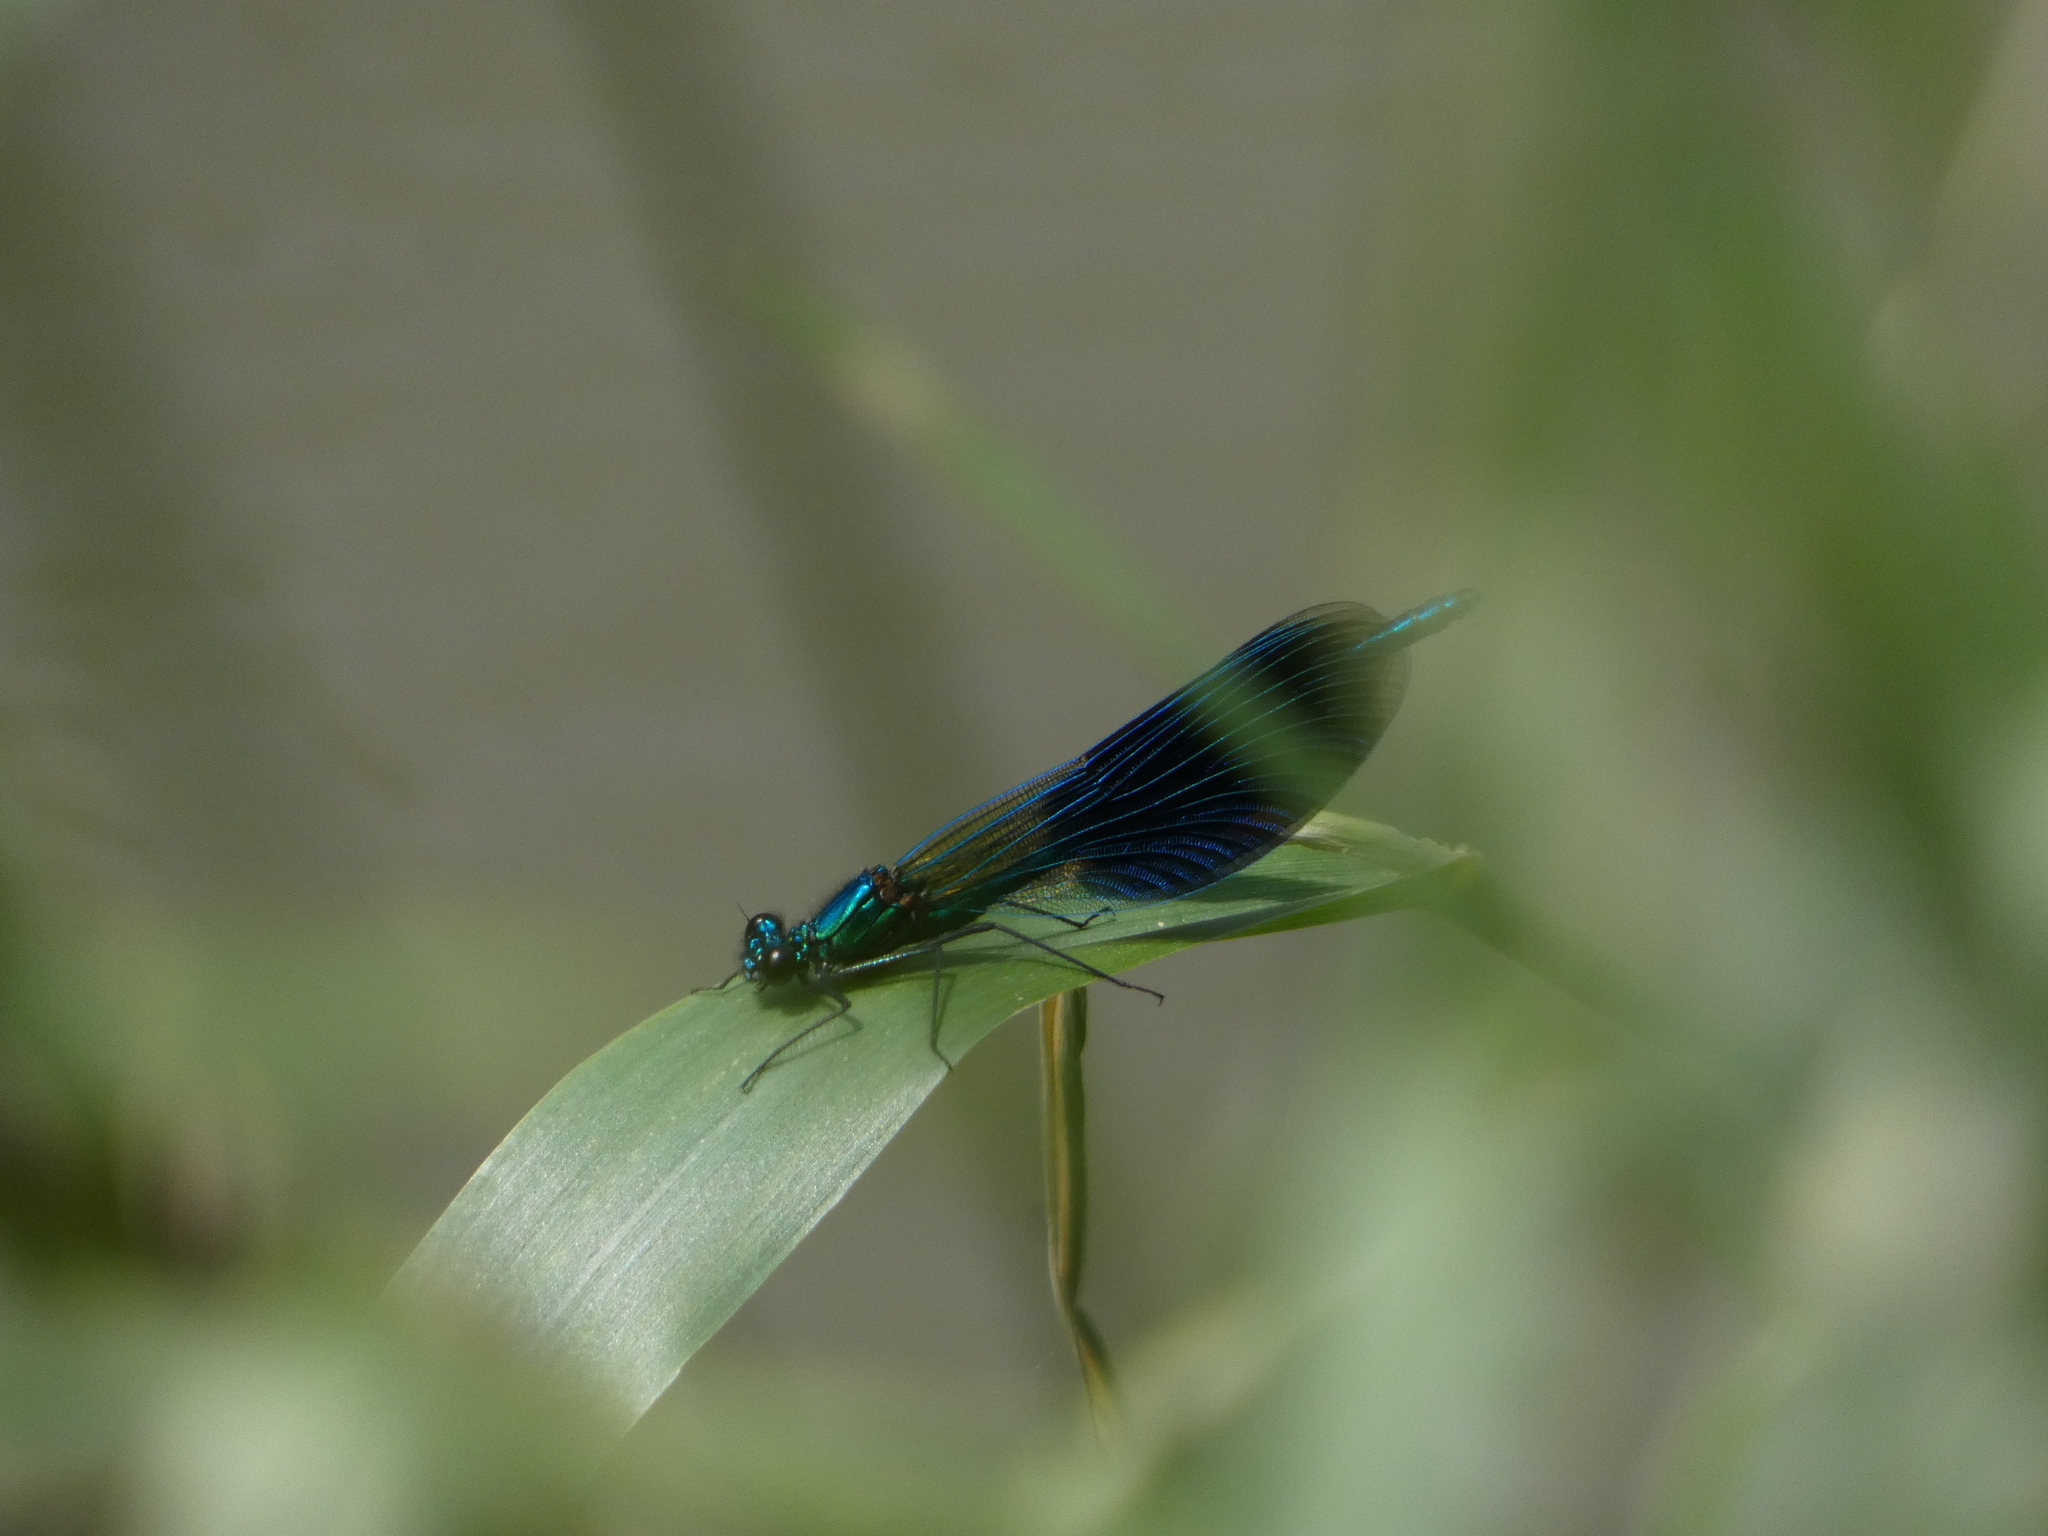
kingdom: Animalia
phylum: Arthropoda
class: Insecta
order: Odonata
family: Calopterygidae
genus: Calopteryx
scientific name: Calopteryx splendens
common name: Banded demoiselle
